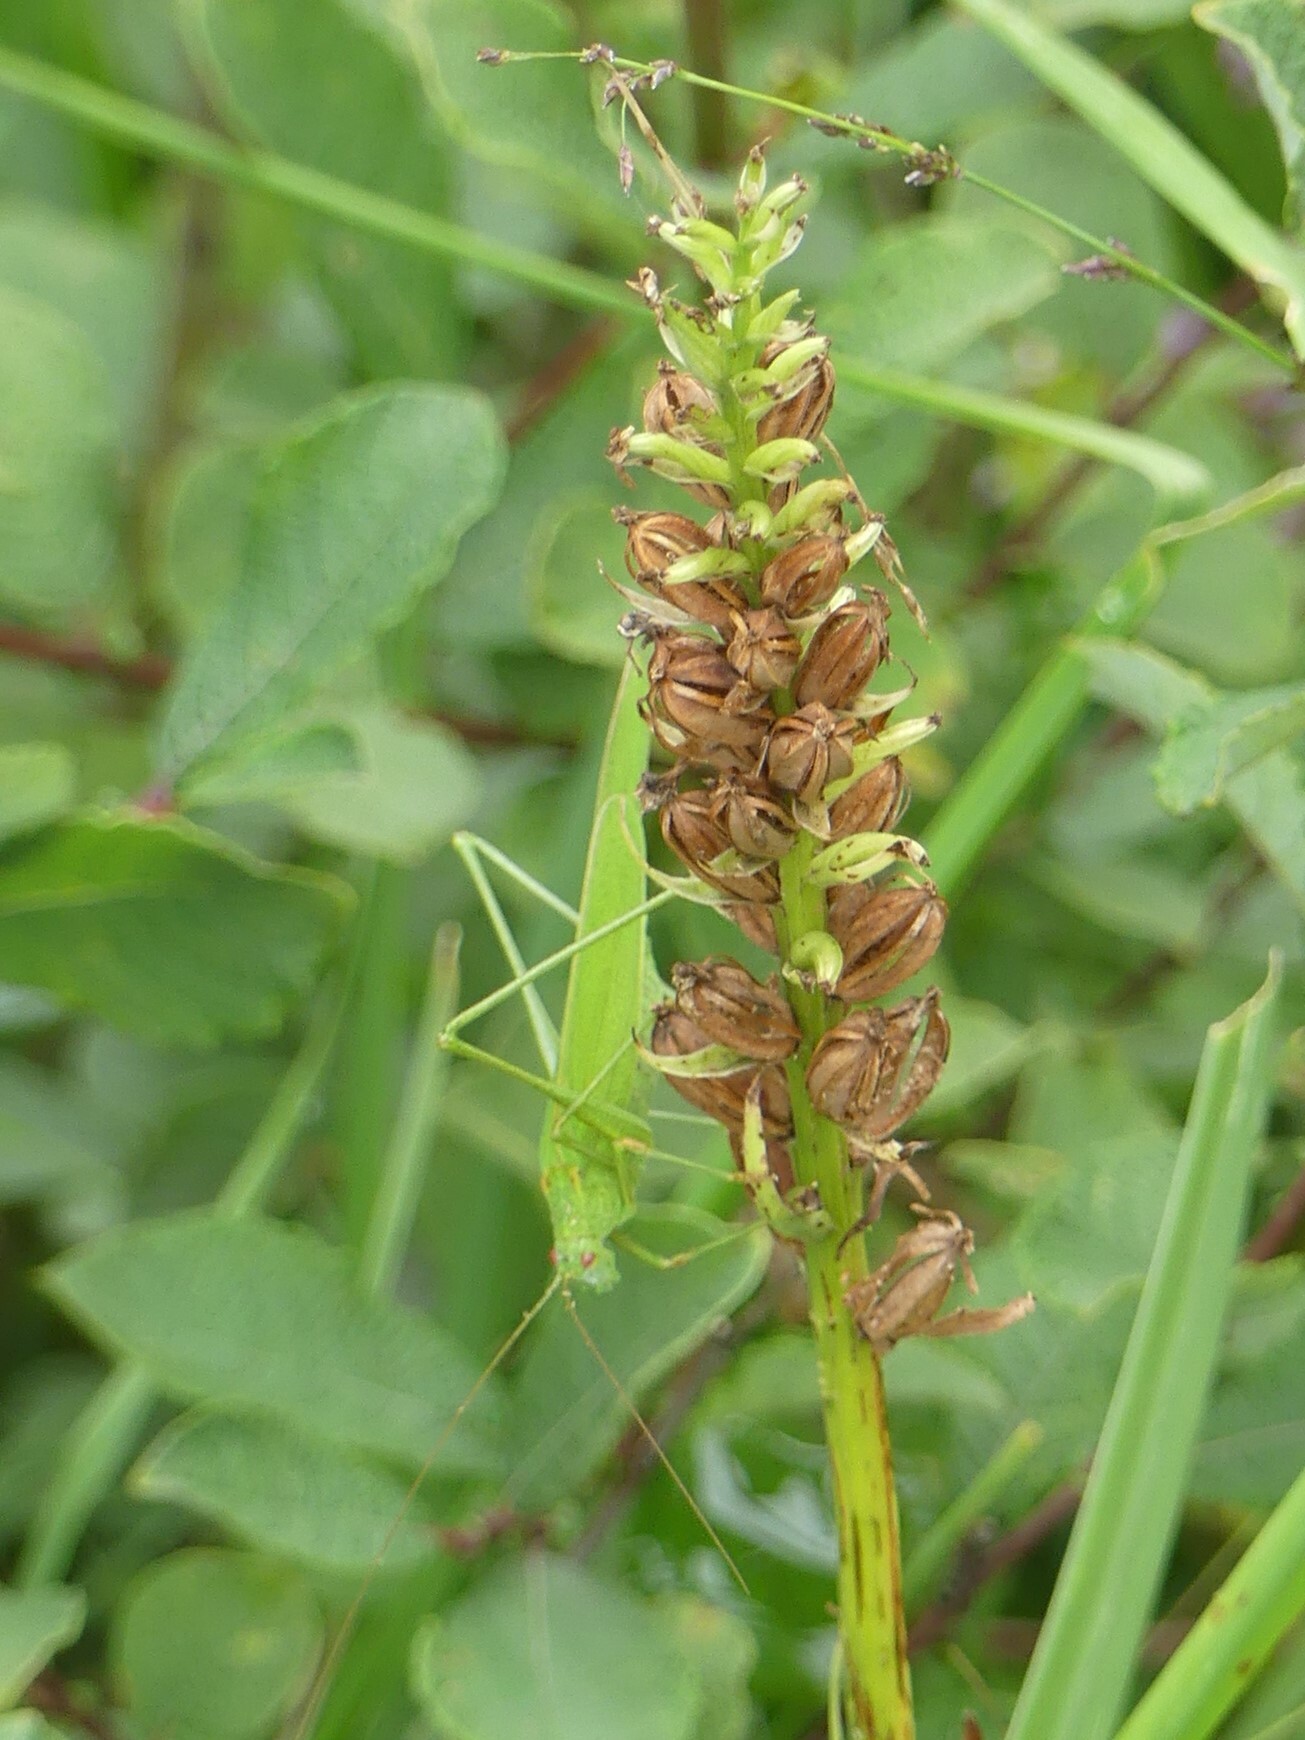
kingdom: Animalia
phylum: Arthropoda
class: Insecta
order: Orthoptera
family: Tettigoniidae
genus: Phaneroptera
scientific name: Phaneroptera falcata
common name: Sickle-bearing bush-cricket
